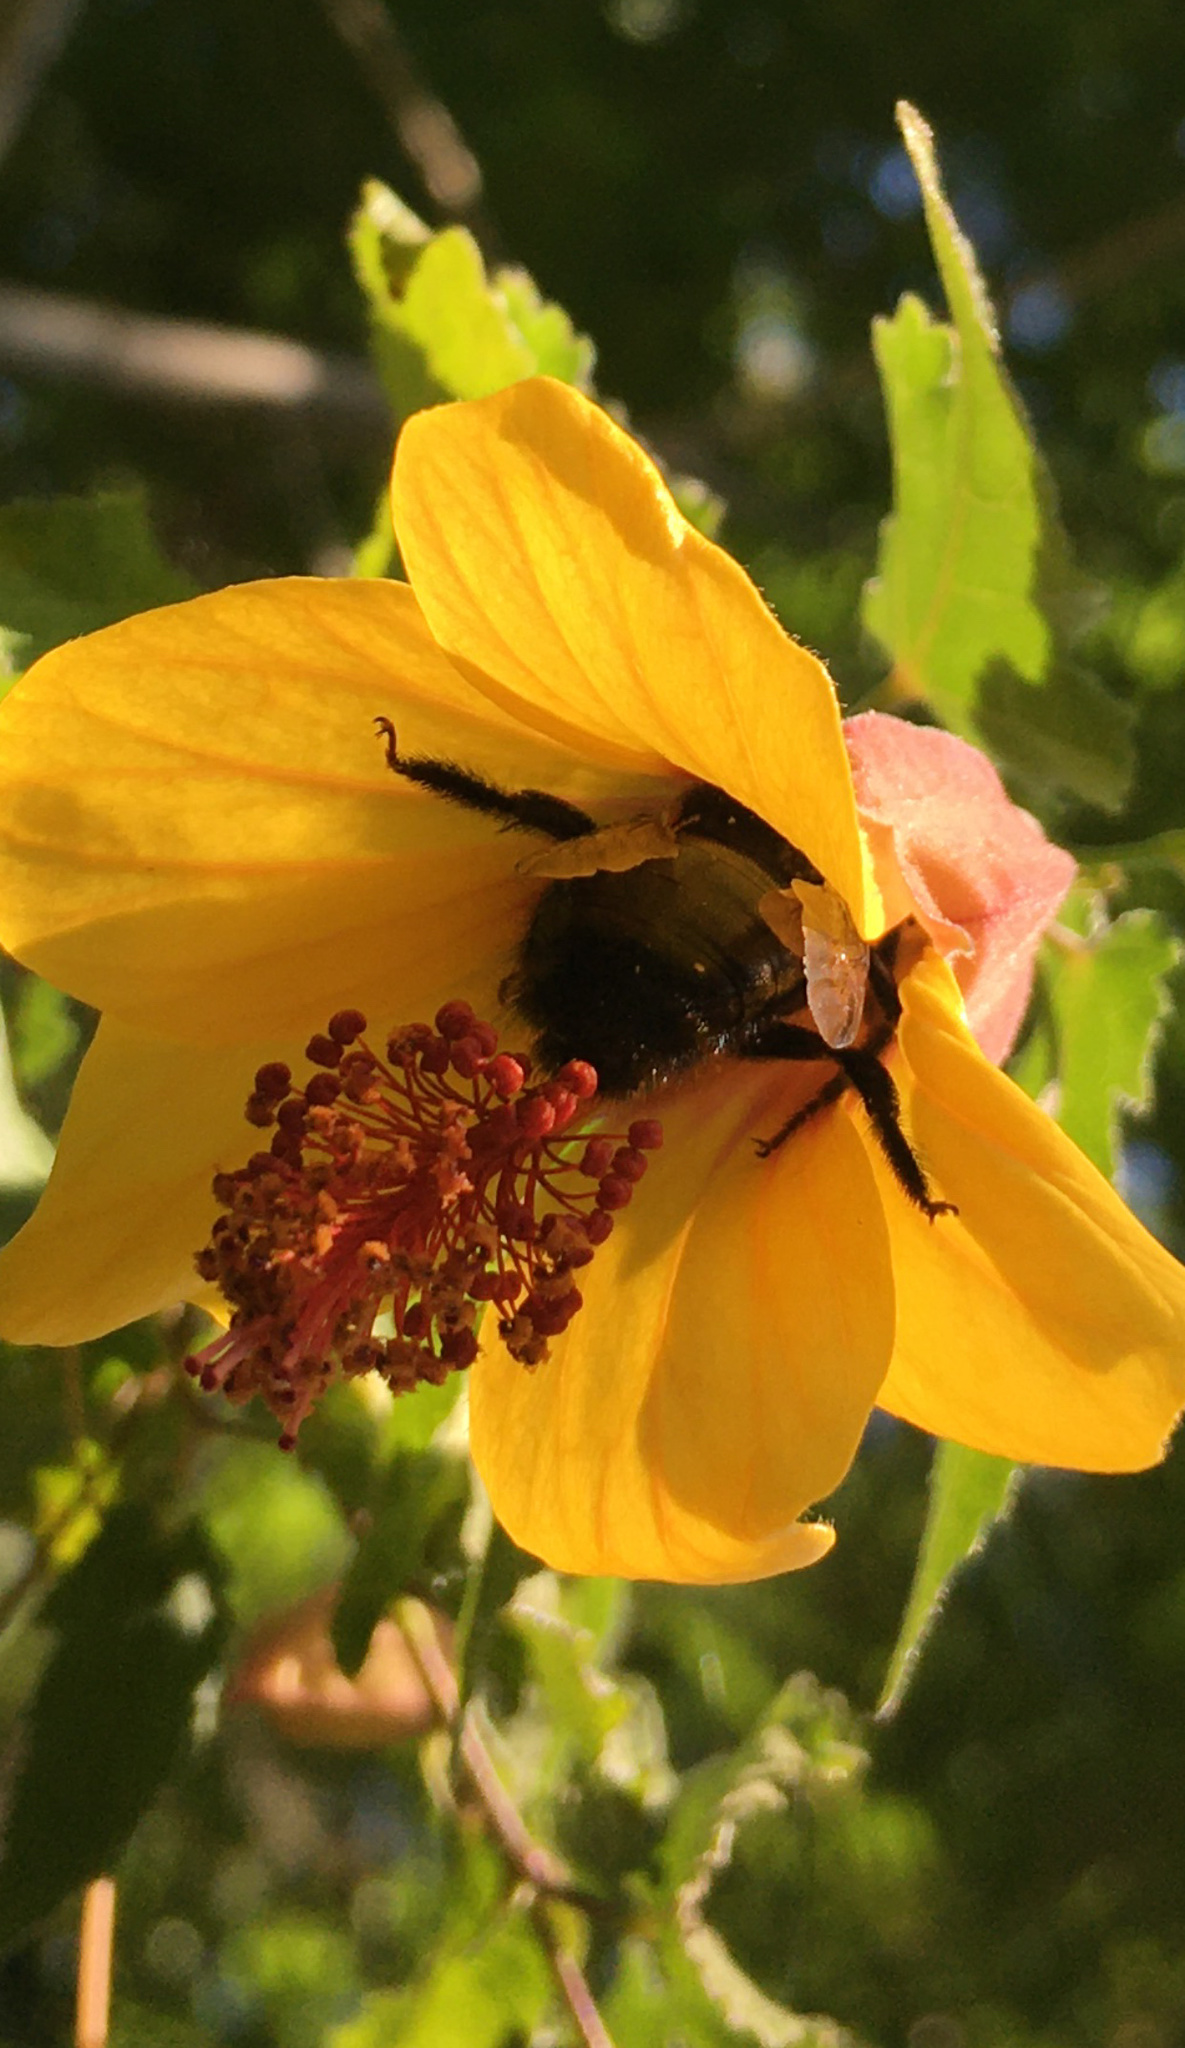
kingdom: Animalia
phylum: Arthropoda
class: Insecta
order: Hymenoptera
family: Apidae
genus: Xylocopa
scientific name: Xylocopa tabaniformis
